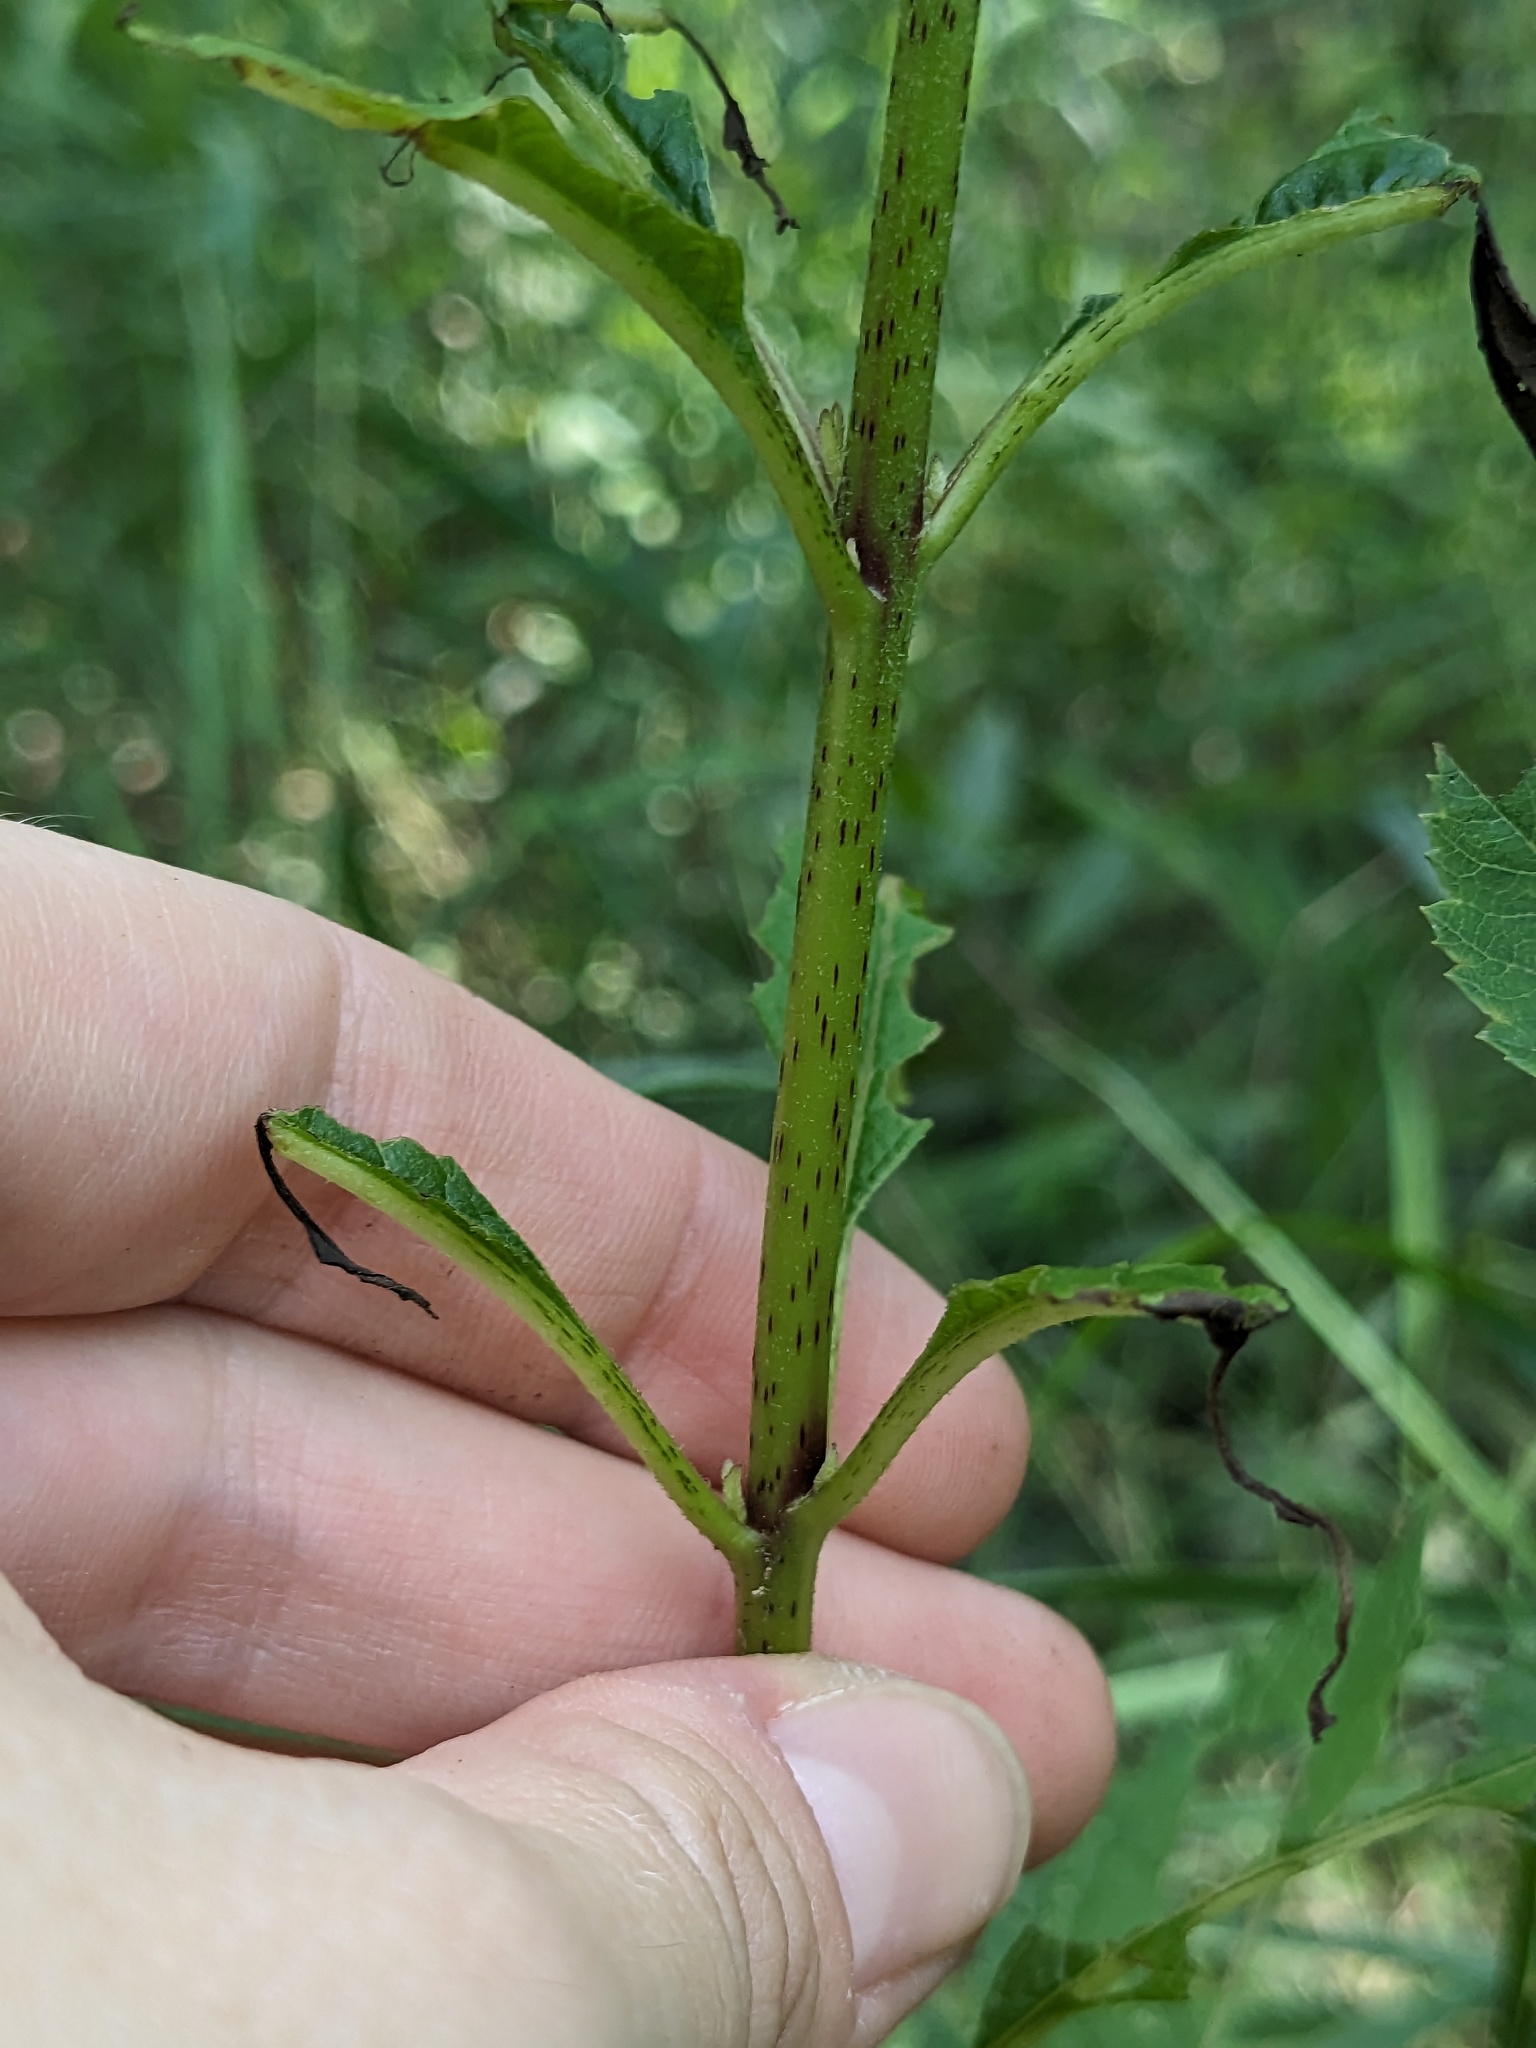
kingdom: Plantae
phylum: Tracheophyta
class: Magnoliopsida
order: Asterales
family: Asteraceae
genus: Eutrochium
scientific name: Eutrochium maculatum
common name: Spotted joe pye weed
